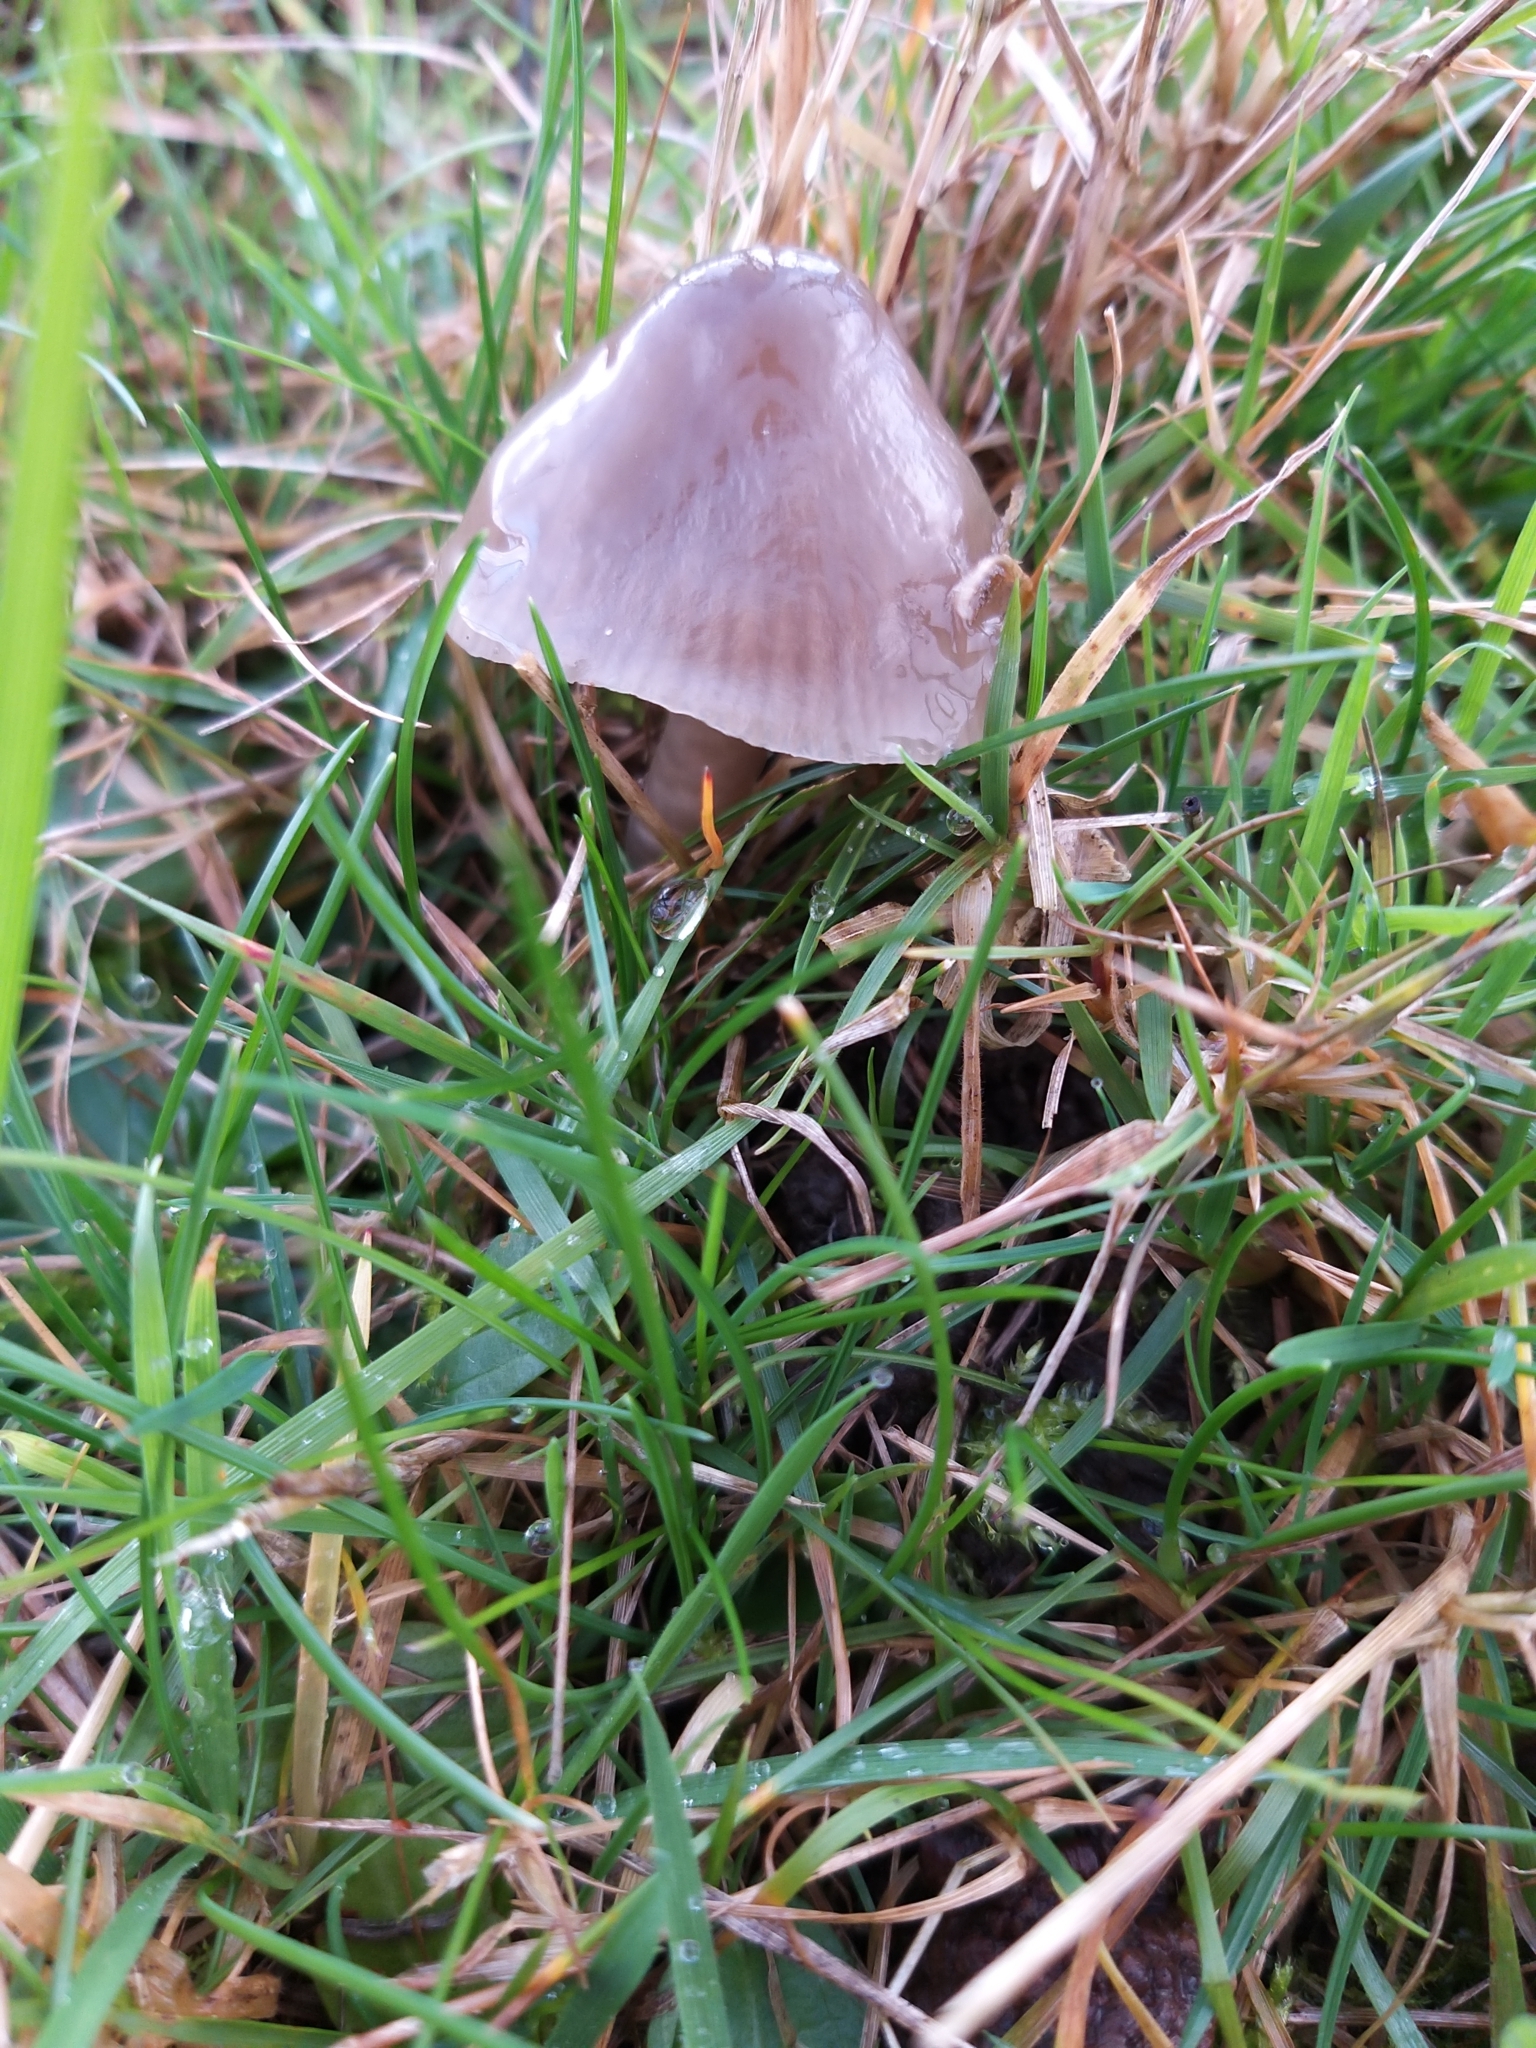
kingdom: Fungi
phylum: Basidiomycota
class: Agaricomycetes
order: Agaricales
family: Hygrophoraceae
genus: Gliophorus
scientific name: Gliophorus irrigatus
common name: Slimy waxcap
